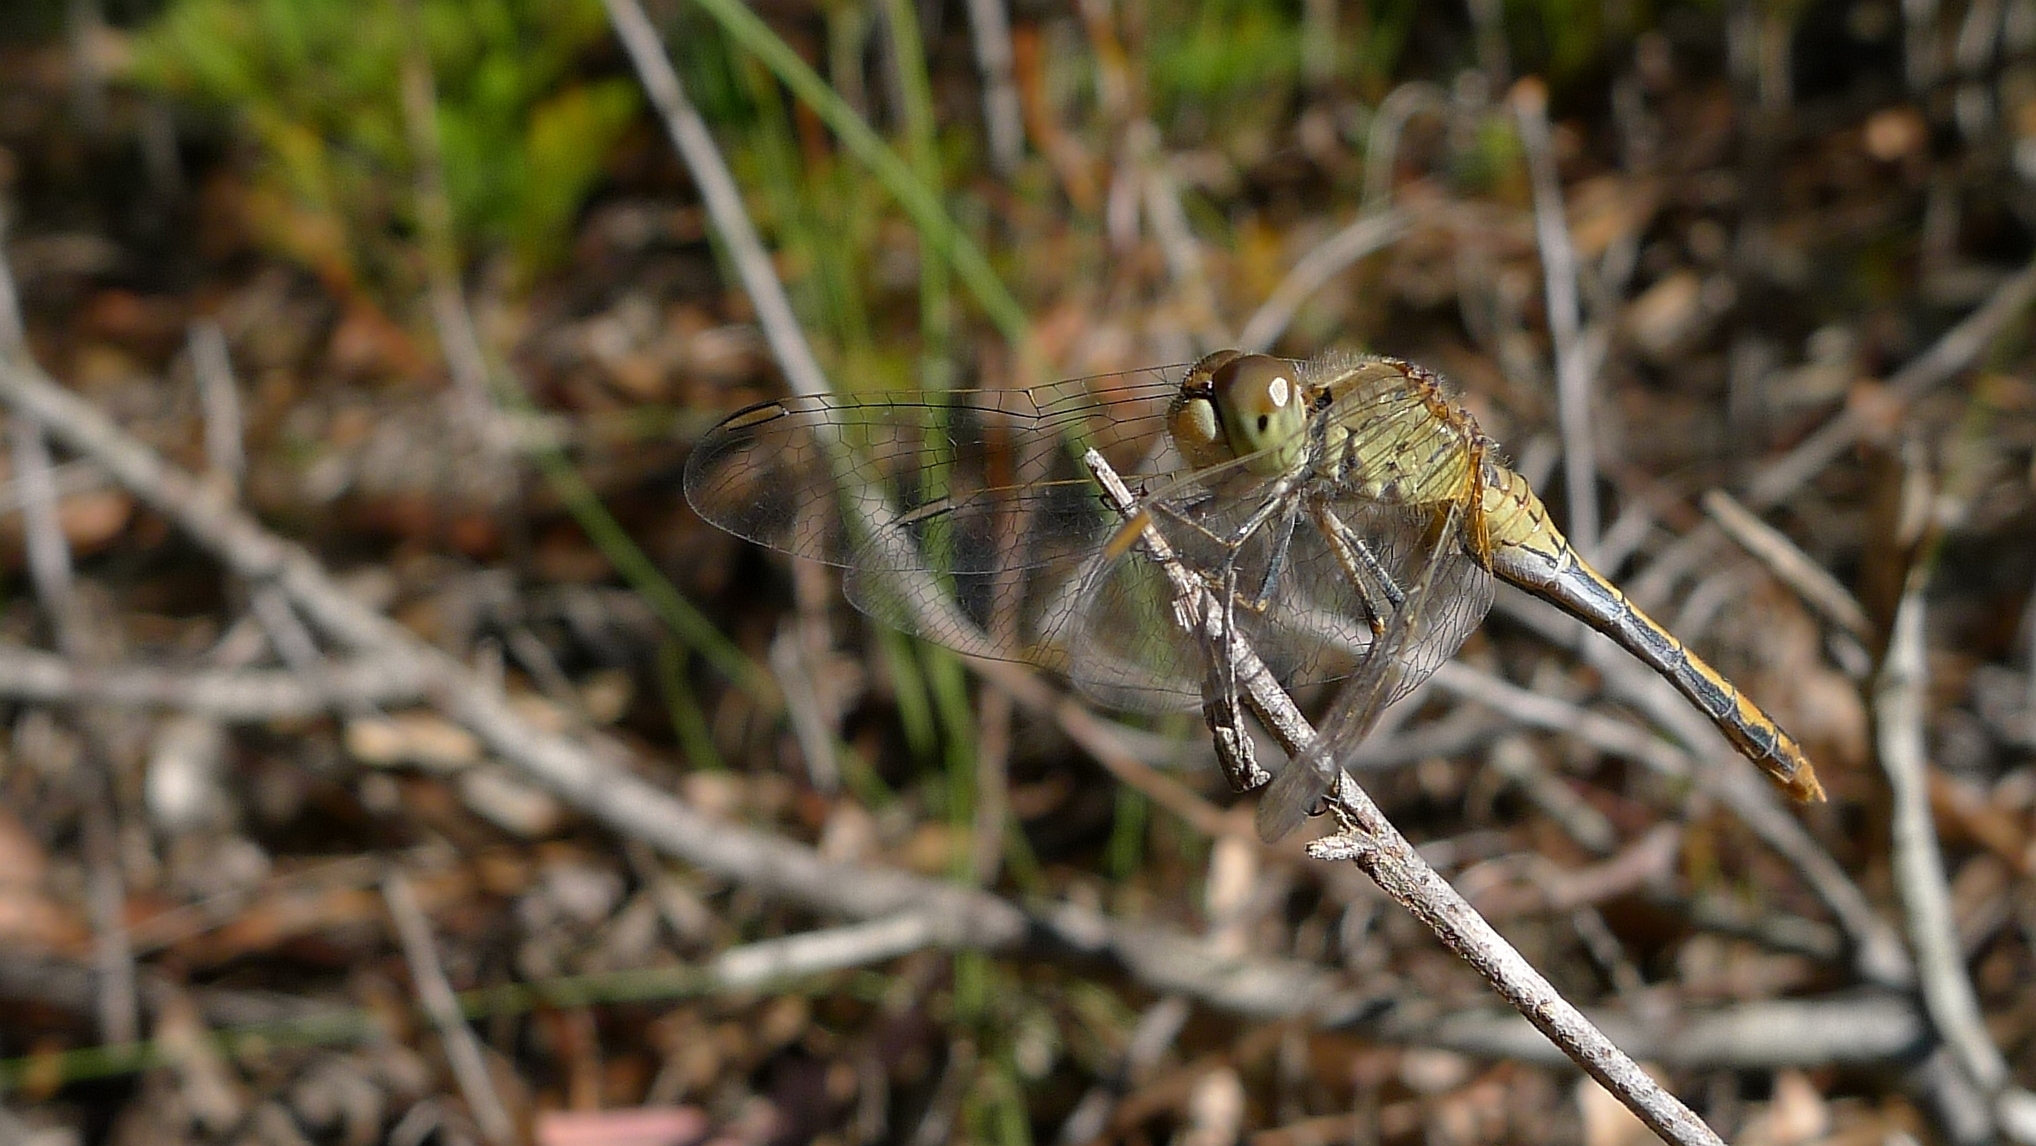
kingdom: Animalia
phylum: Arthropoda
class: Insecta
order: Odonata
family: Libellulidae
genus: Diplacodes
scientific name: Diplacodes bipunctata
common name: Red percher dragonfly
